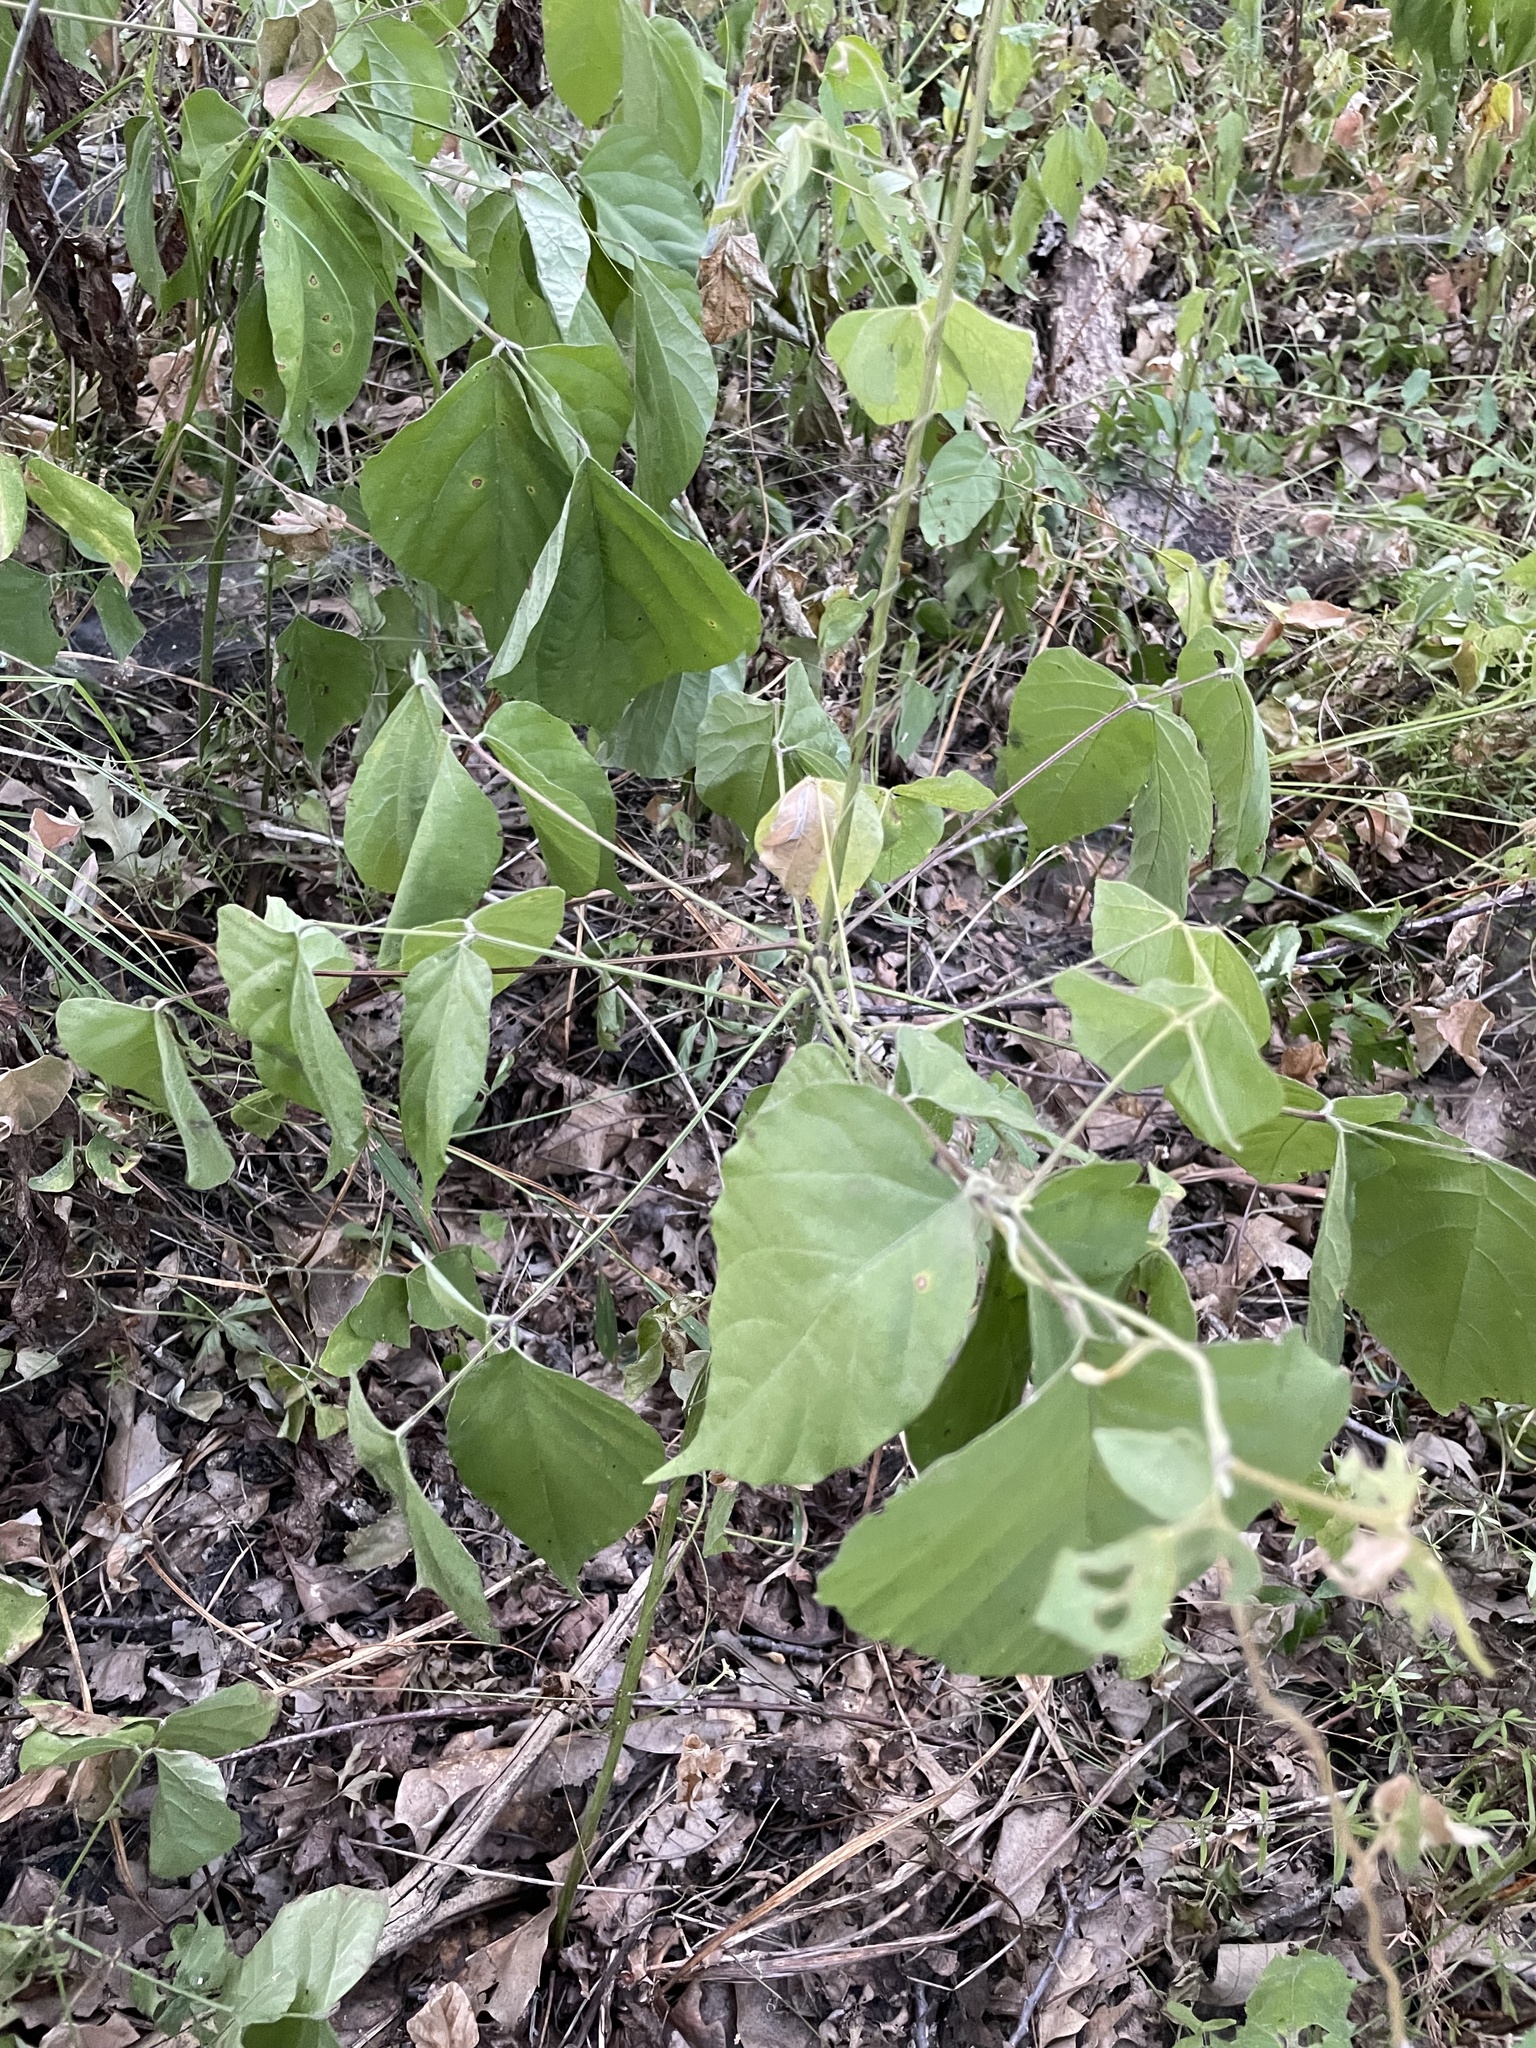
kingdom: Plantae
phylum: Tracheophyta
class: Magnoliopsida
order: Fabales
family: Fabaceae
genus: Hylodesmum
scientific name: Hylodesmum glutinosum
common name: Clustered-leaved tick-trefoil
